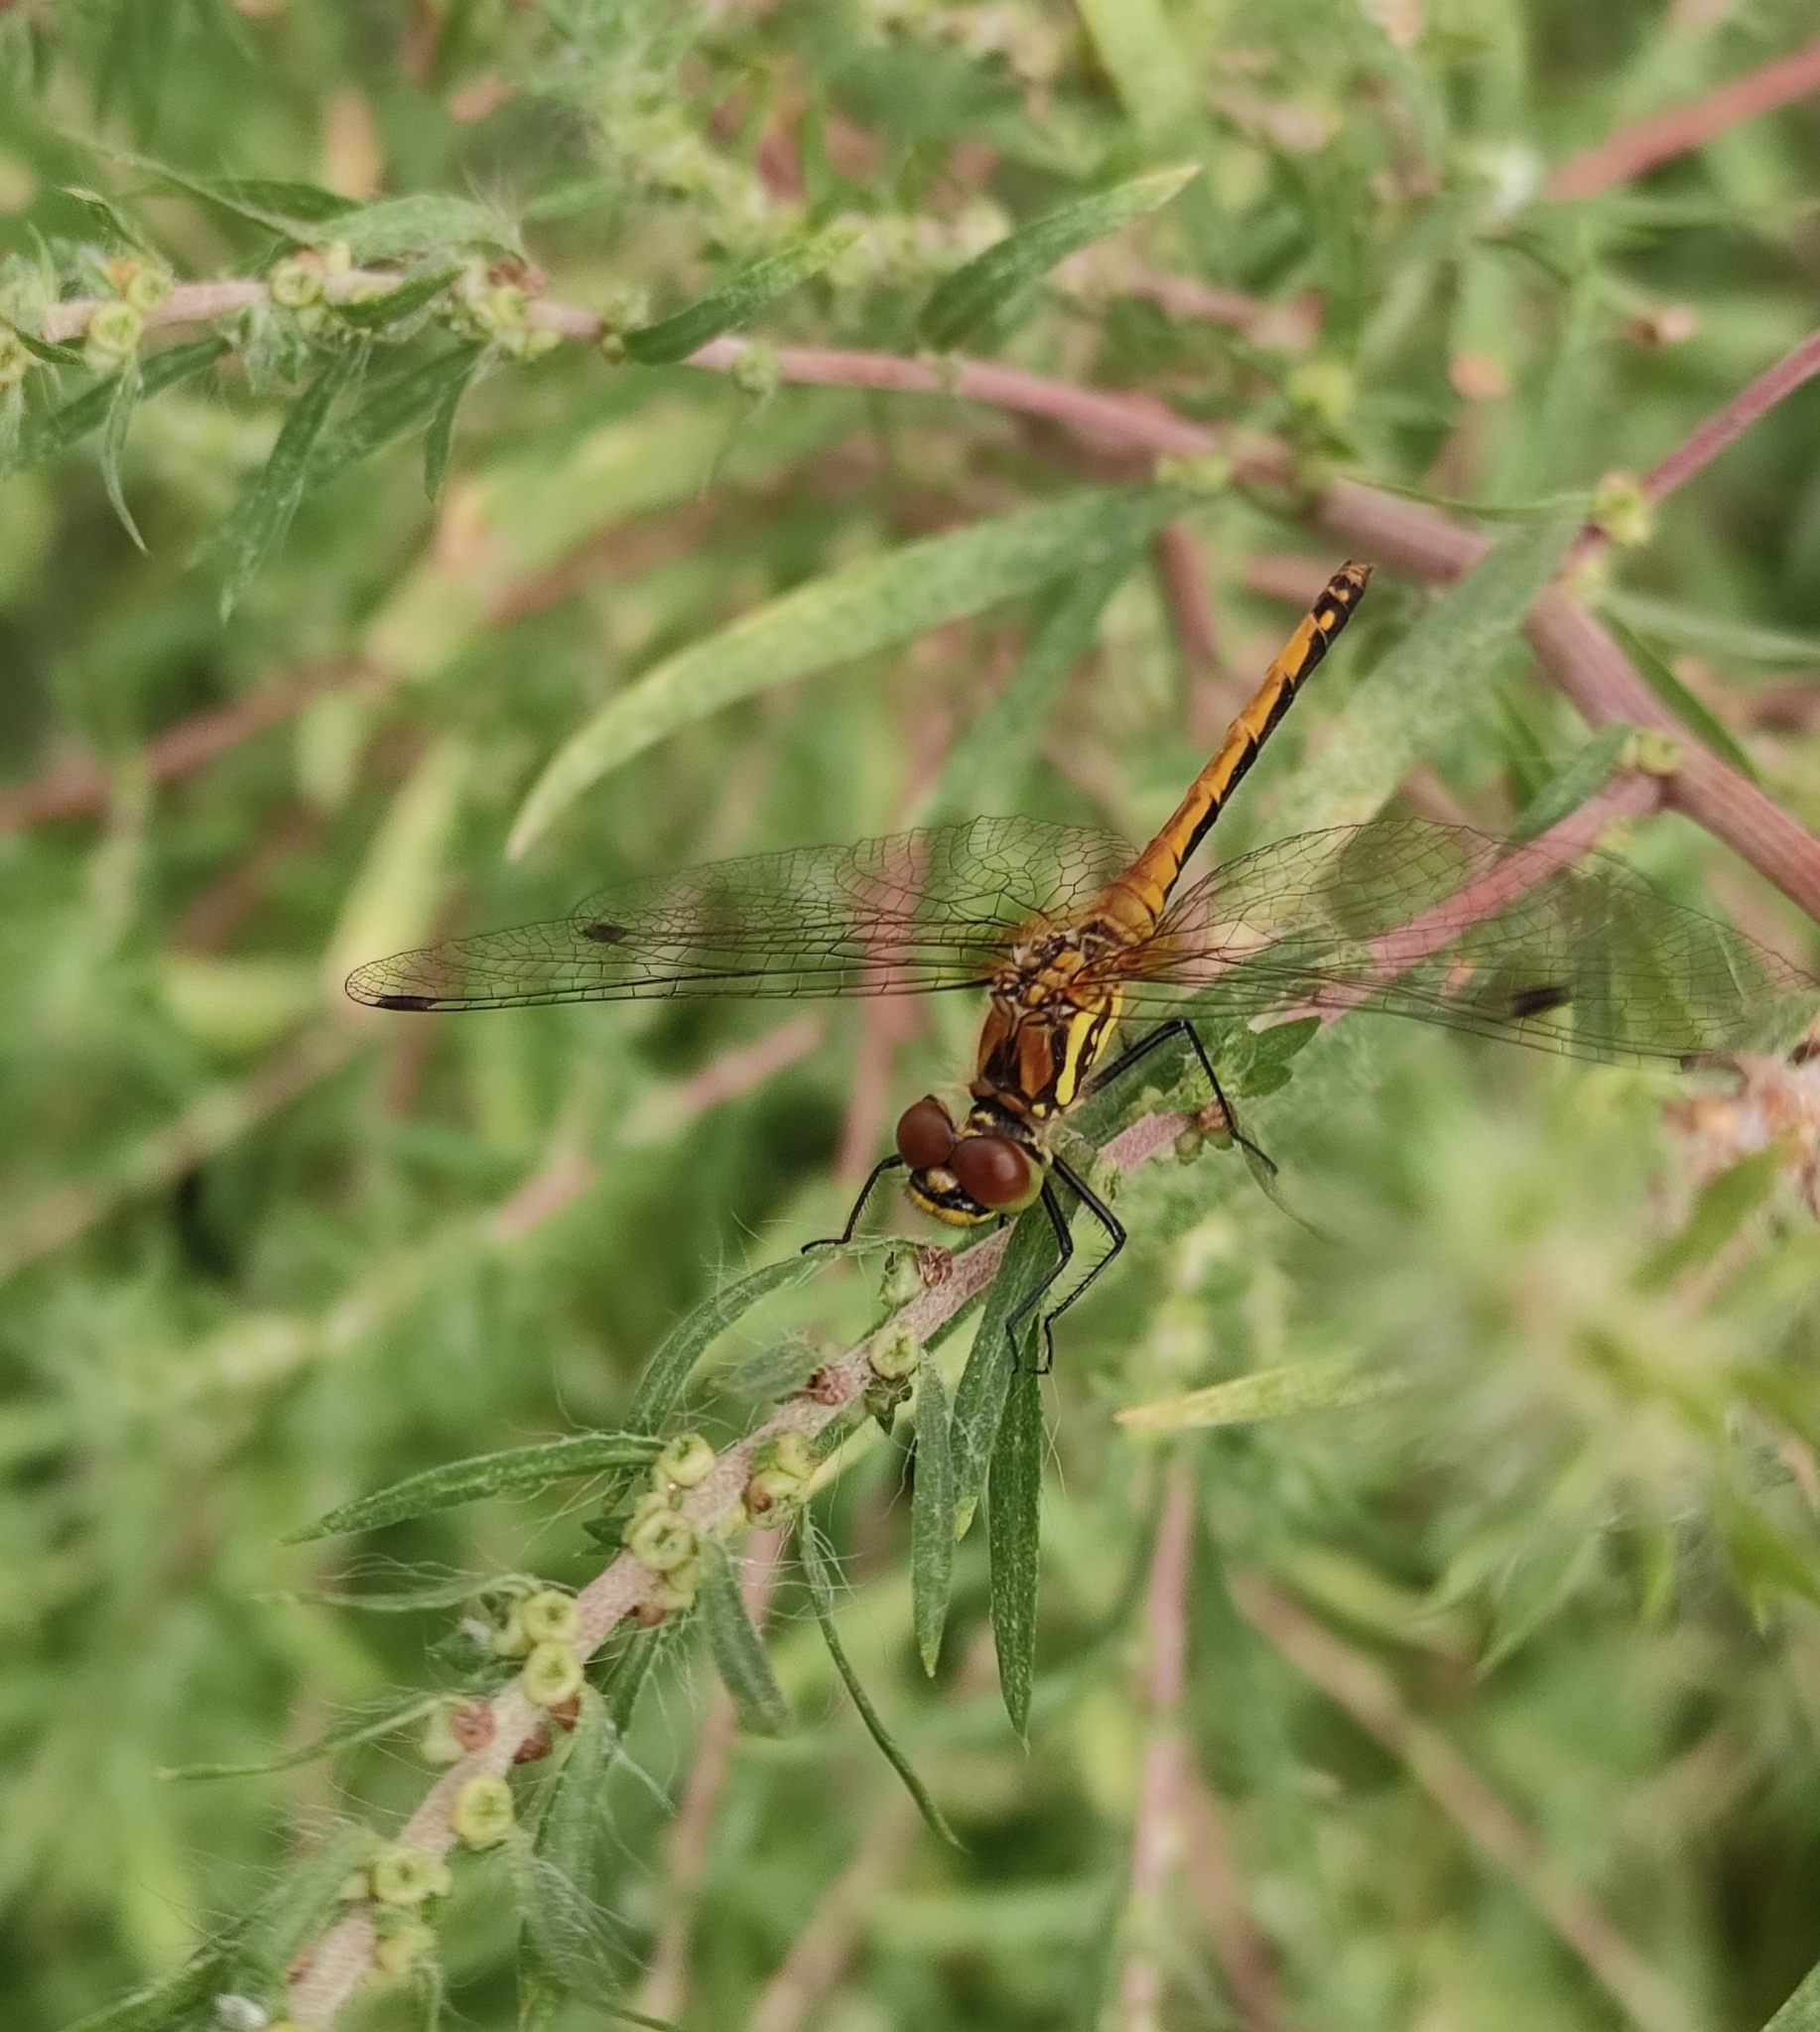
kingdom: Animalia
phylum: Arthropoda
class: Insecta
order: Odonata
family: Libellulidae
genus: Sympetrum
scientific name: Sympetrum danae
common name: Black darter
